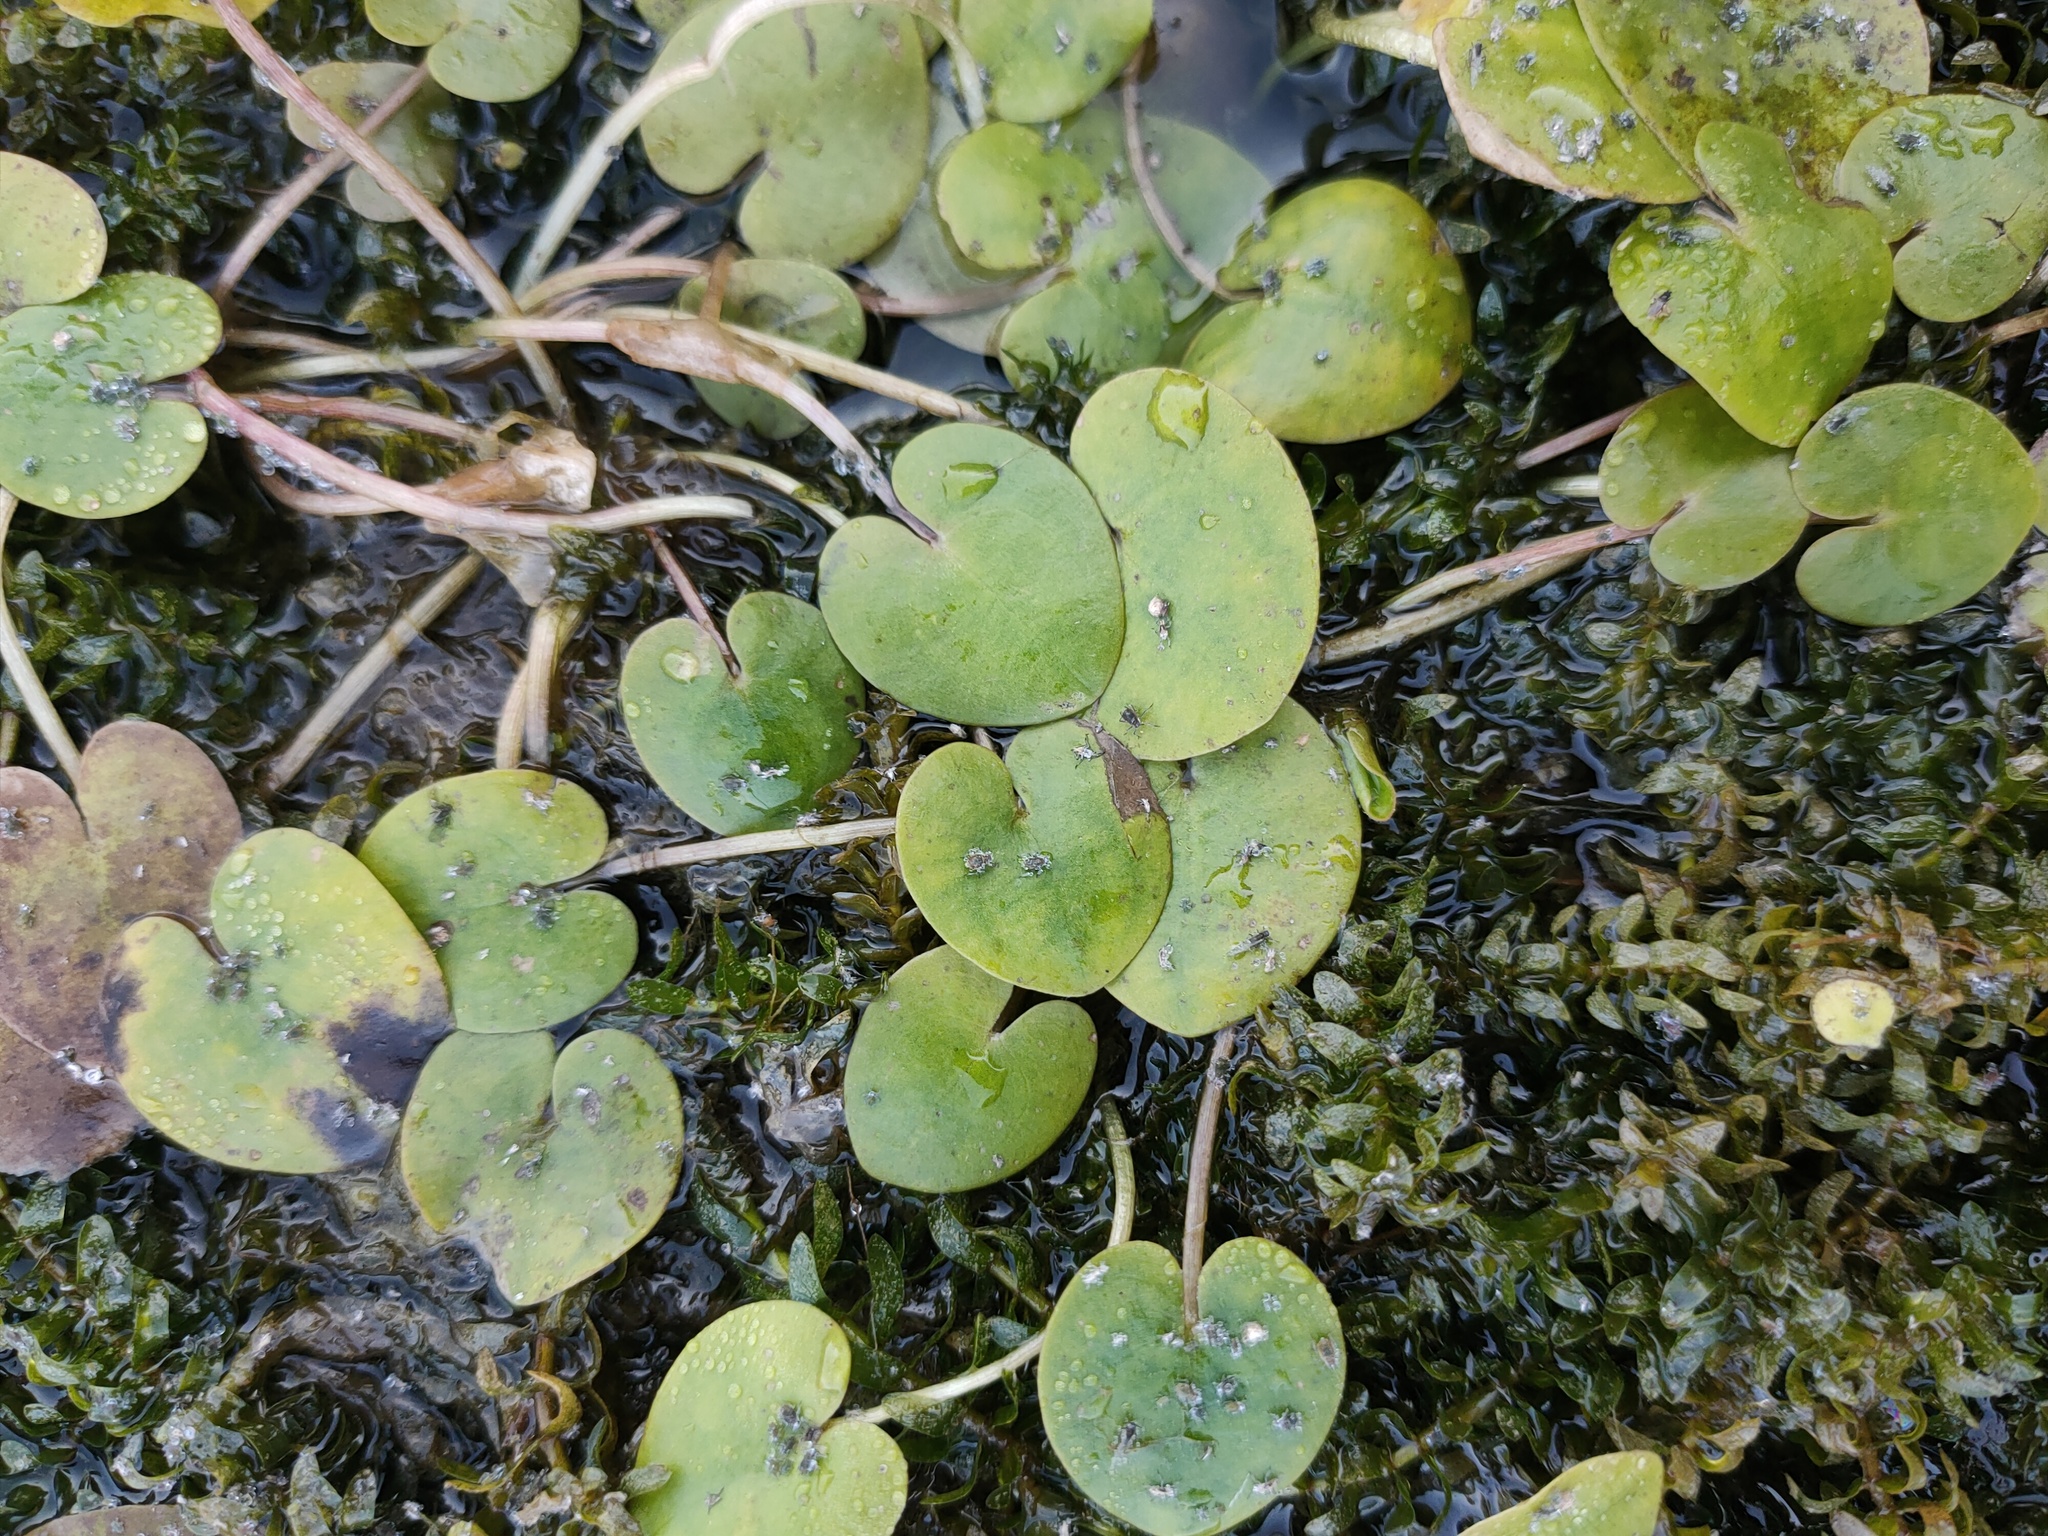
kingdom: Plantae
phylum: Tracheophyta
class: Liliopsida
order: Alismatales
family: Hydrocharitaceae
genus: Hydrocharis
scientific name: Hydrocharis morsus-ranae
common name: Frogbit
